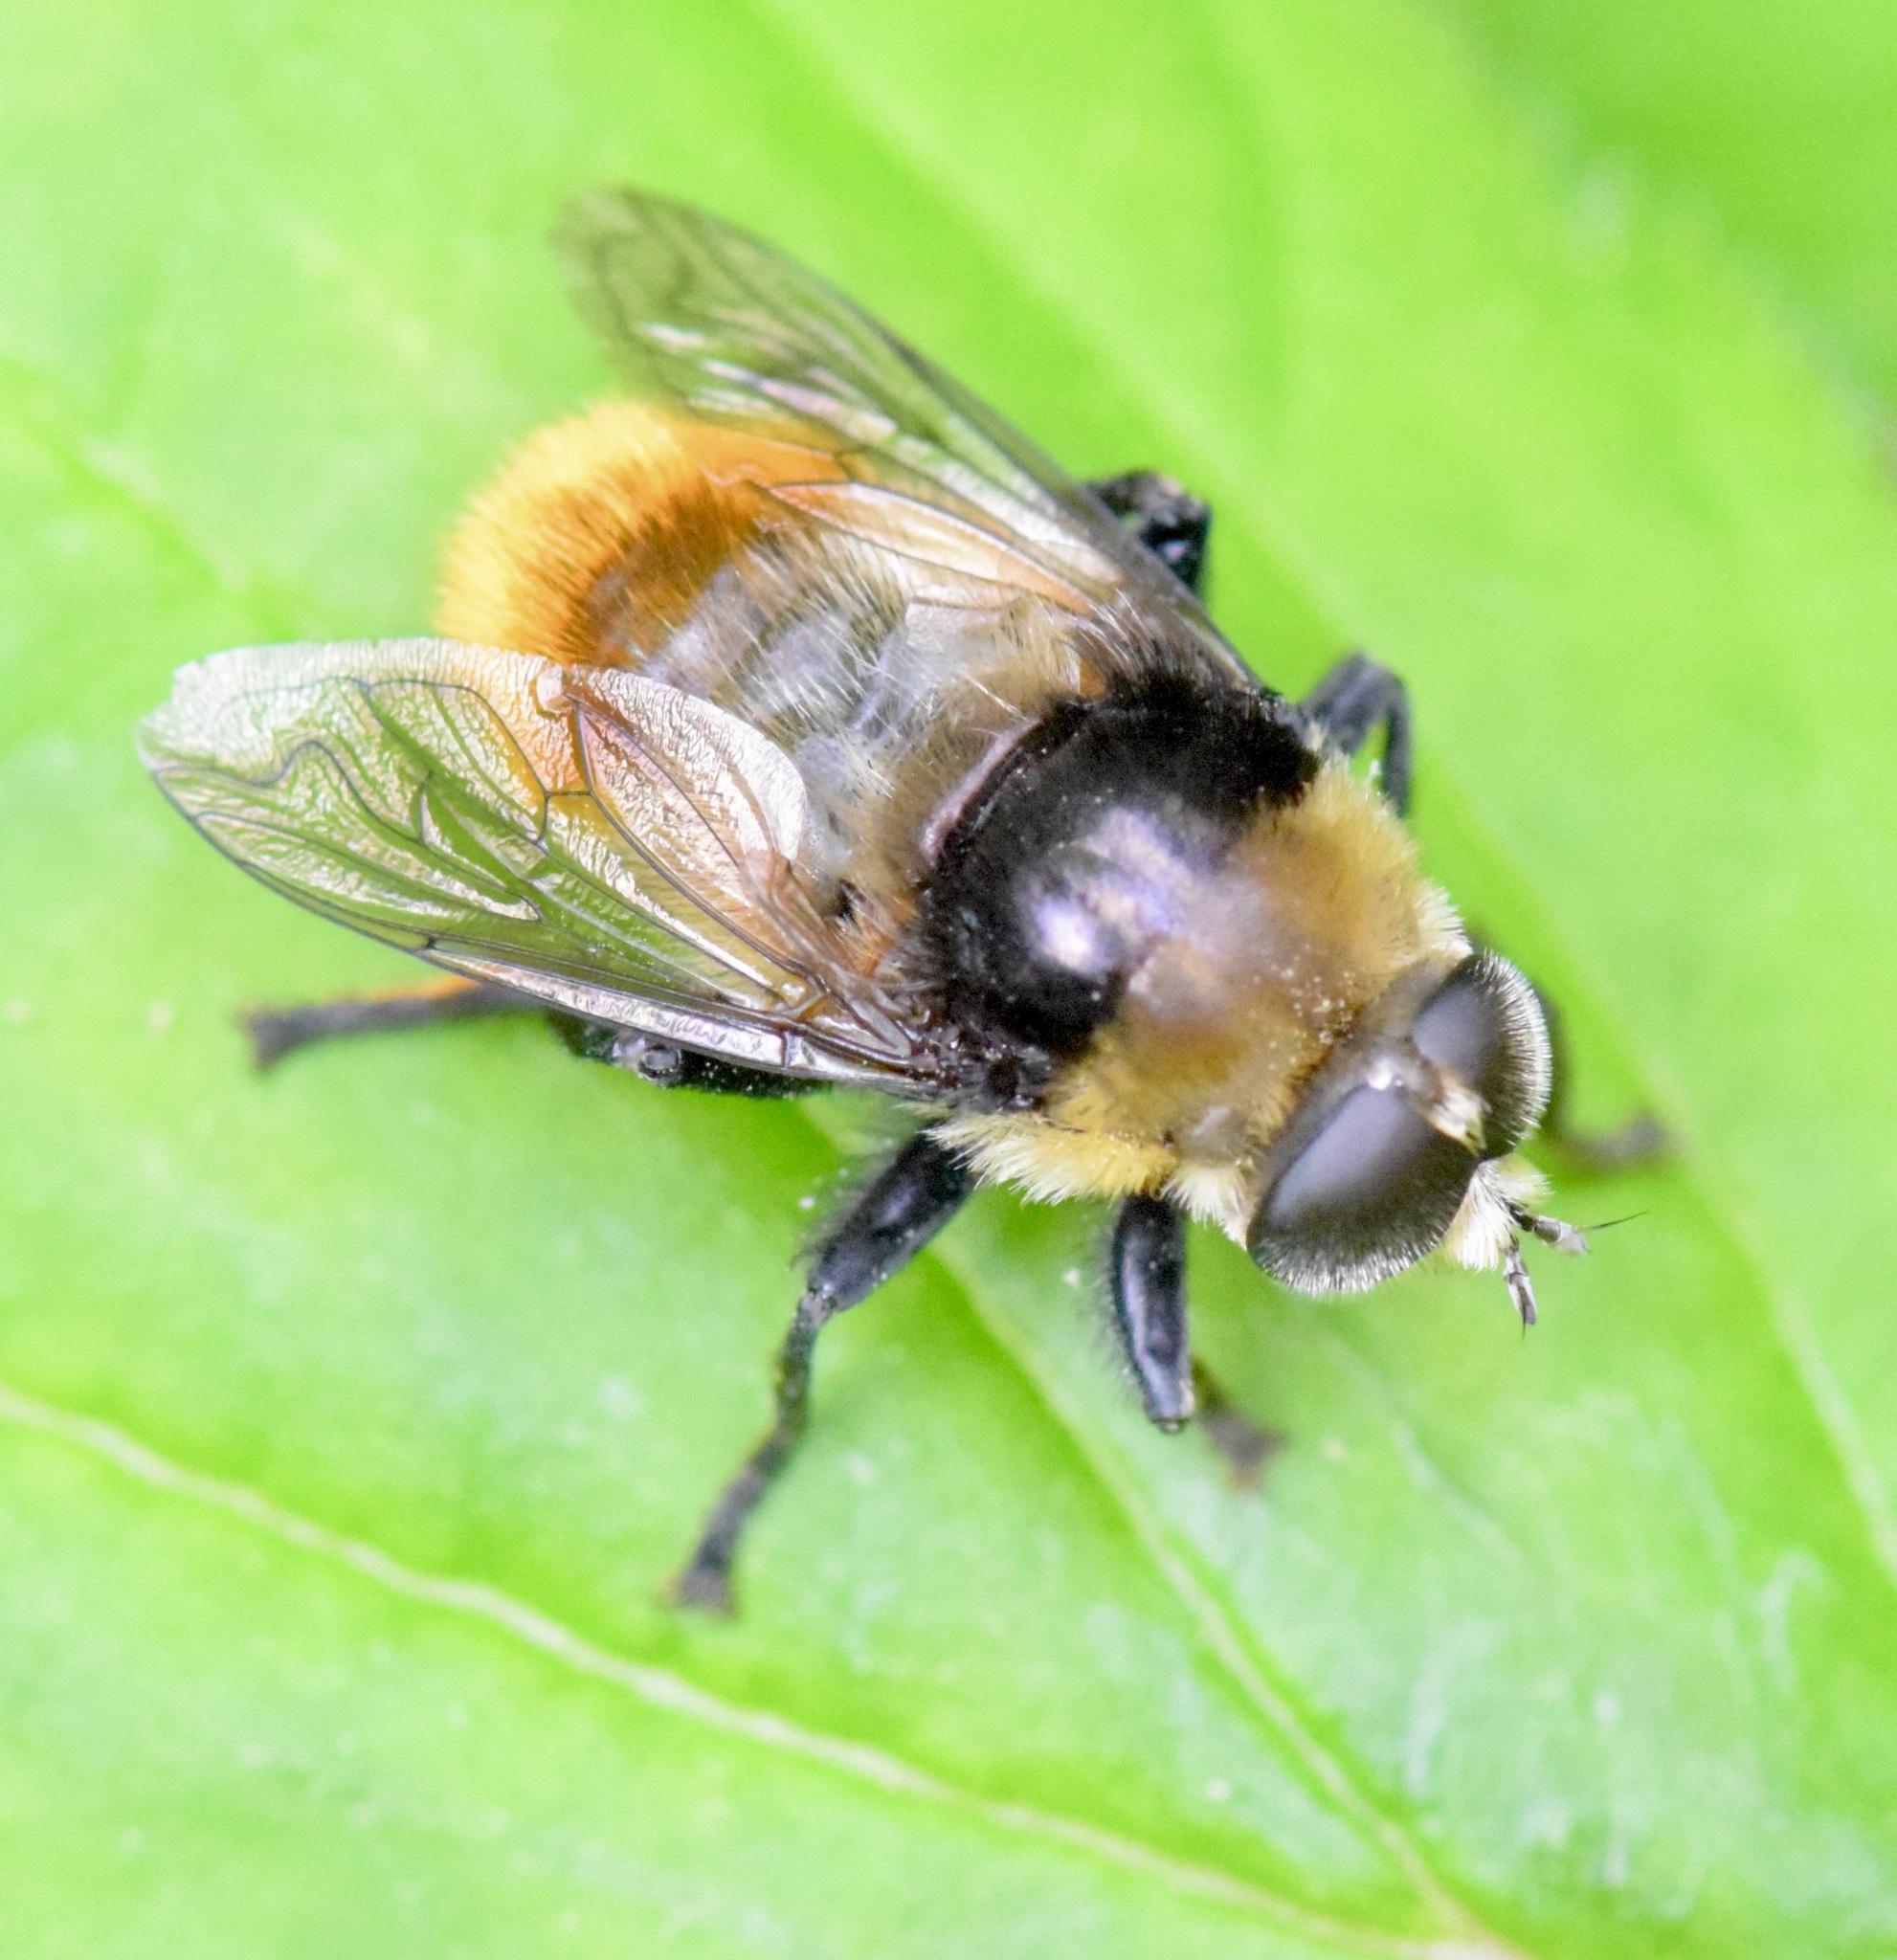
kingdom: Animalia
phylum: Arthropoda
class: Insecta
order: Diptera
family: Syrphidae
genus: Merodon
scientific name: Merodon equestris
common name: Greater bulb-fly
